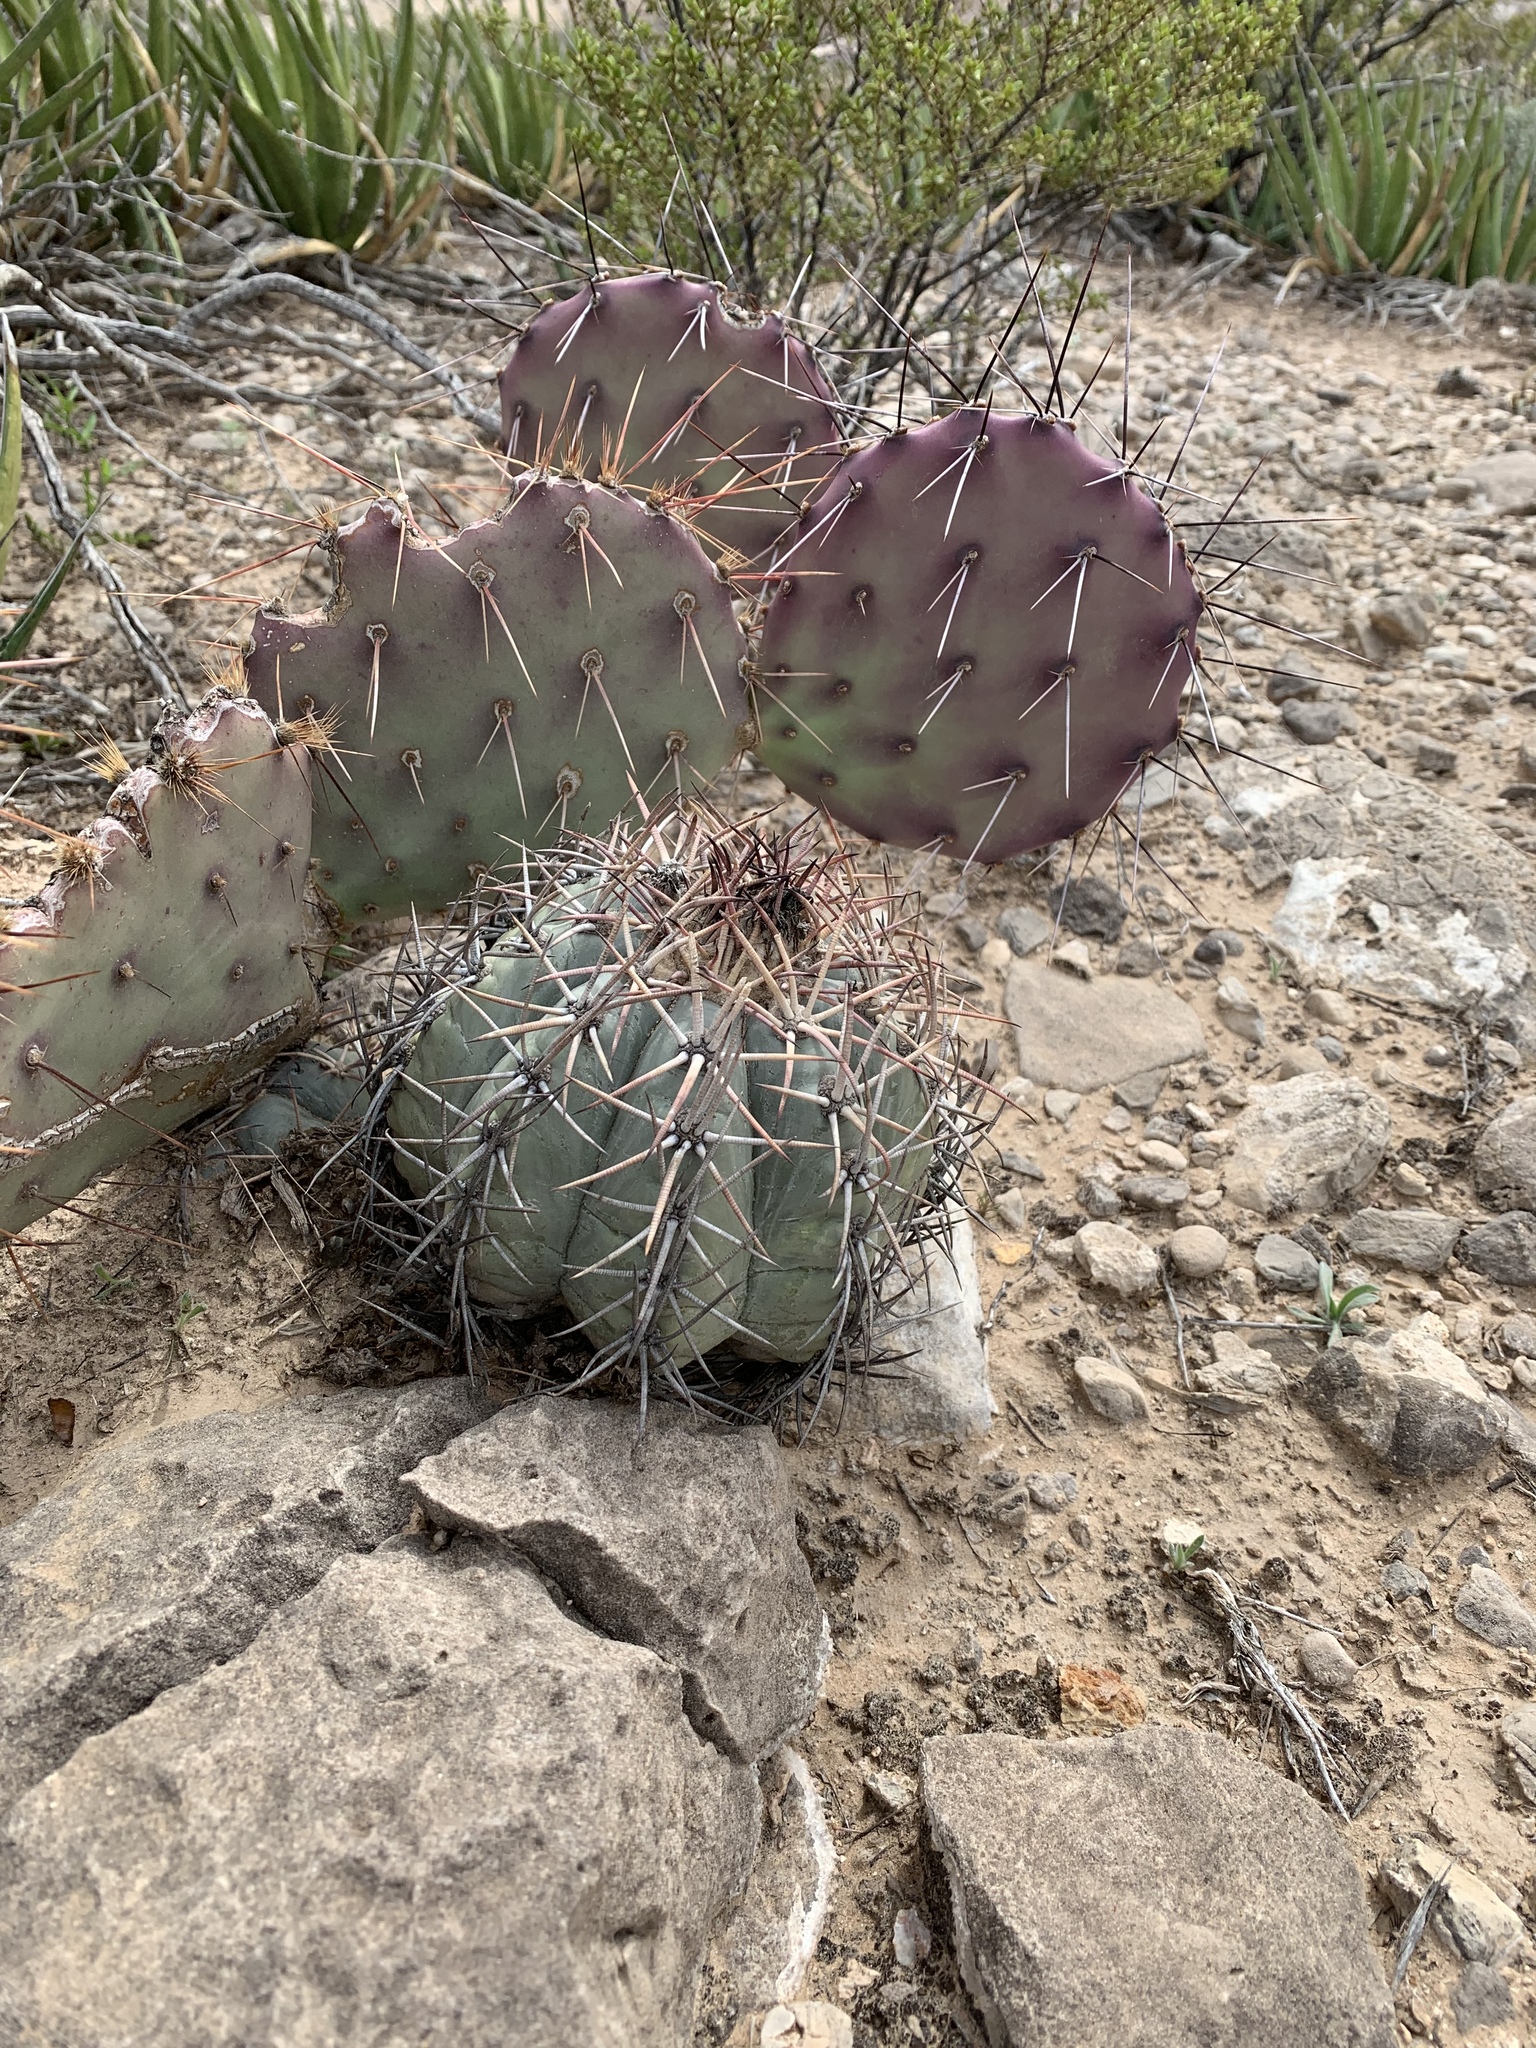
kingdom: Plantae
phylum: Tracheophyta
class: Magnoliopsida
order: Caryophyllales
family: Cactaceae
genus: Echinocactus
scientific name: Echinocactus horizonthalonius
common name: Devilshead
